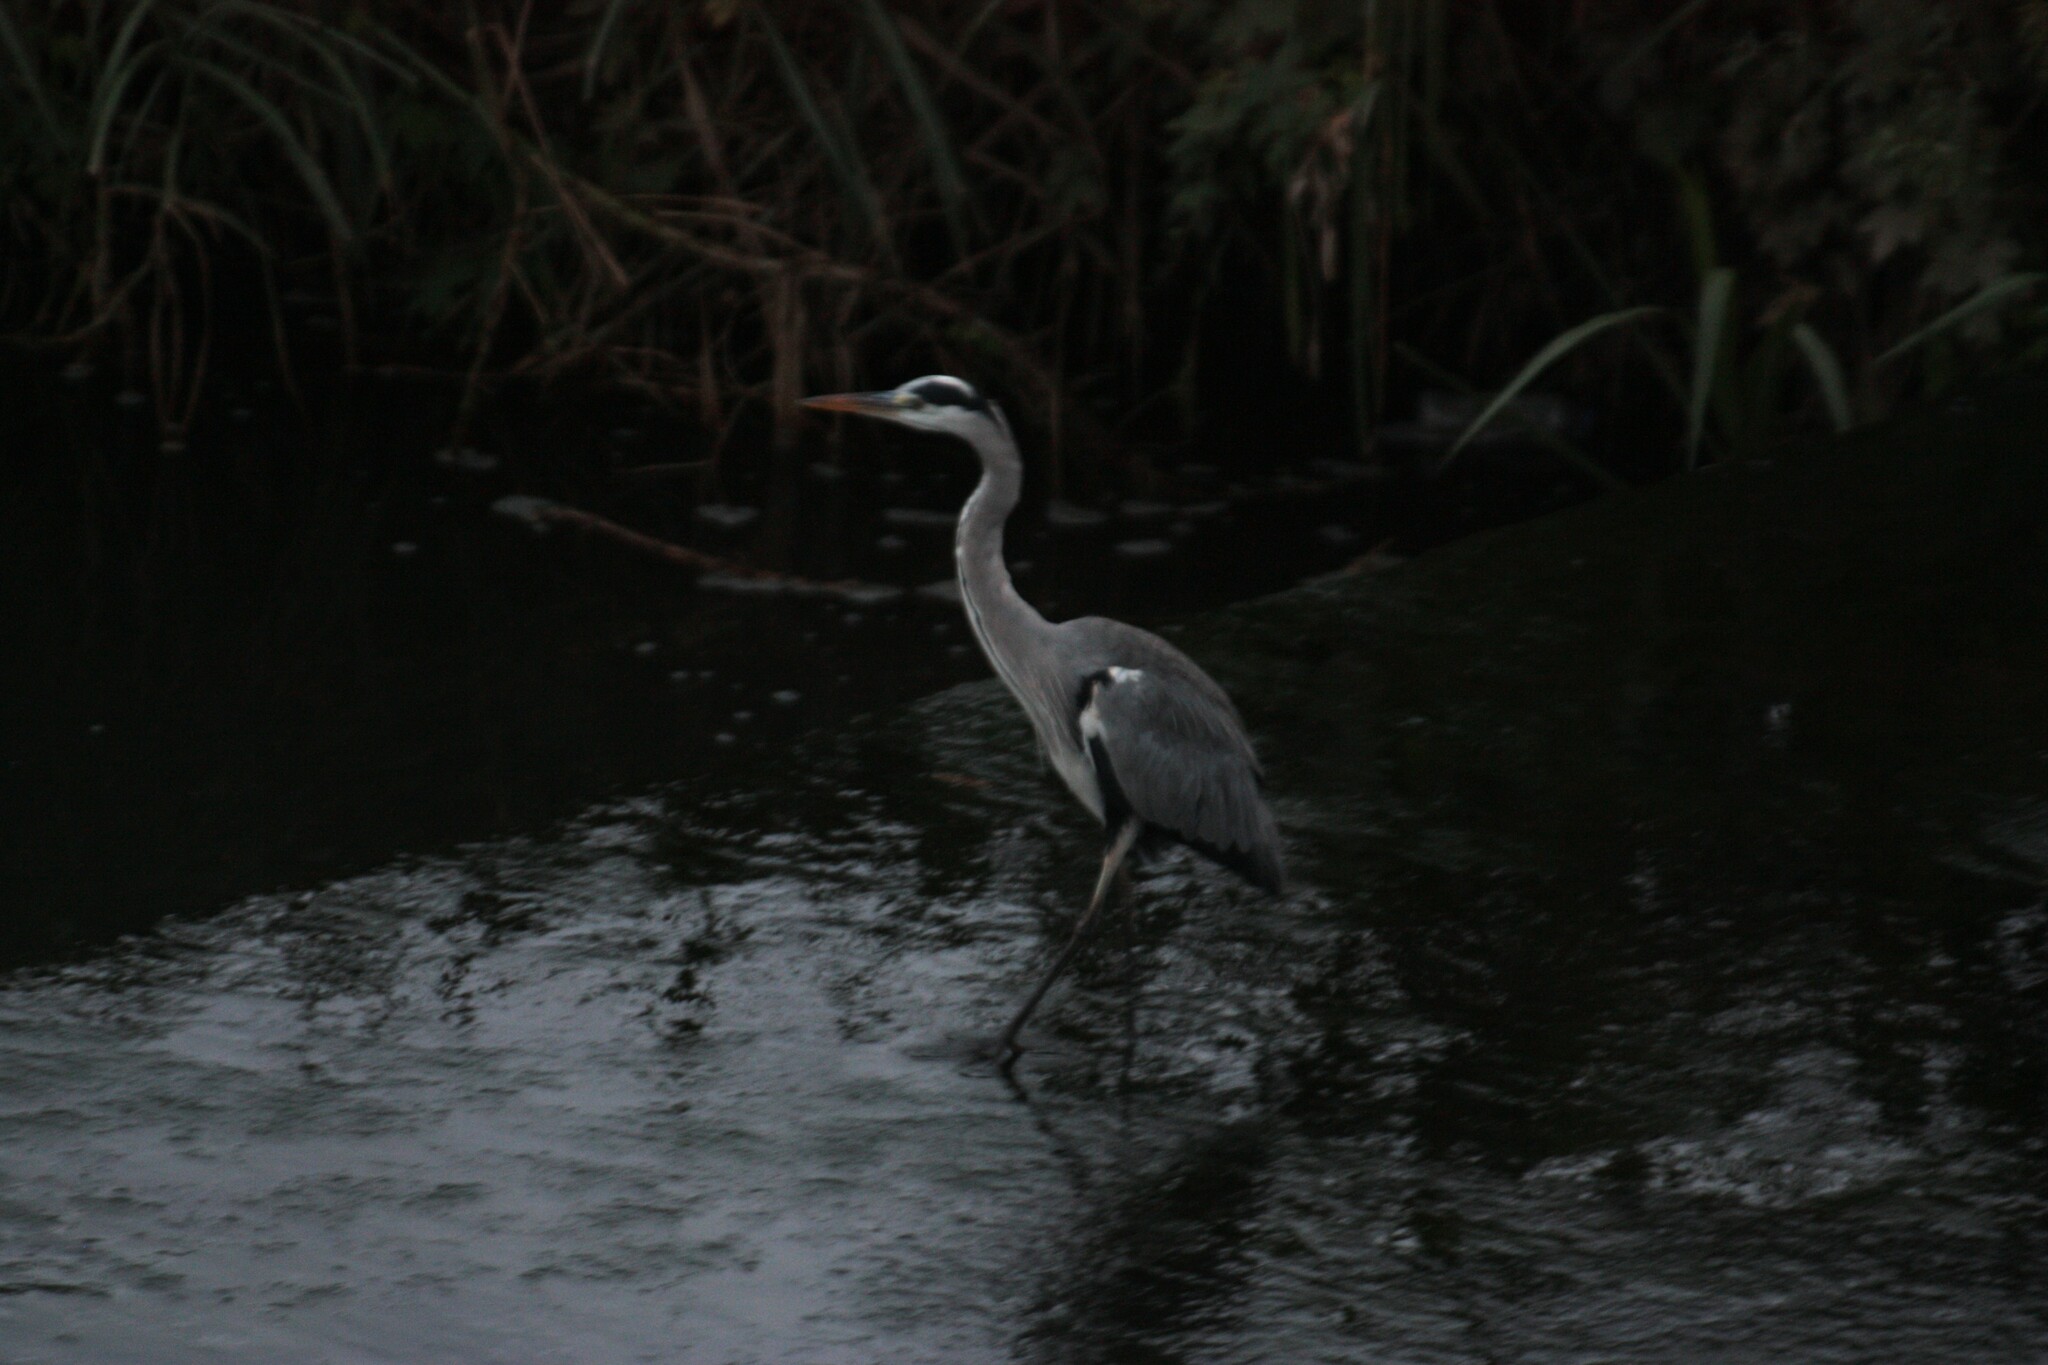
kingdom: Animalia
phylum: Chordata
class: Aves
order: Pelecaniformes
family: Ardeidae
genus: Ardea
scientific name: Ardea cinerea
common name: Grey heron
